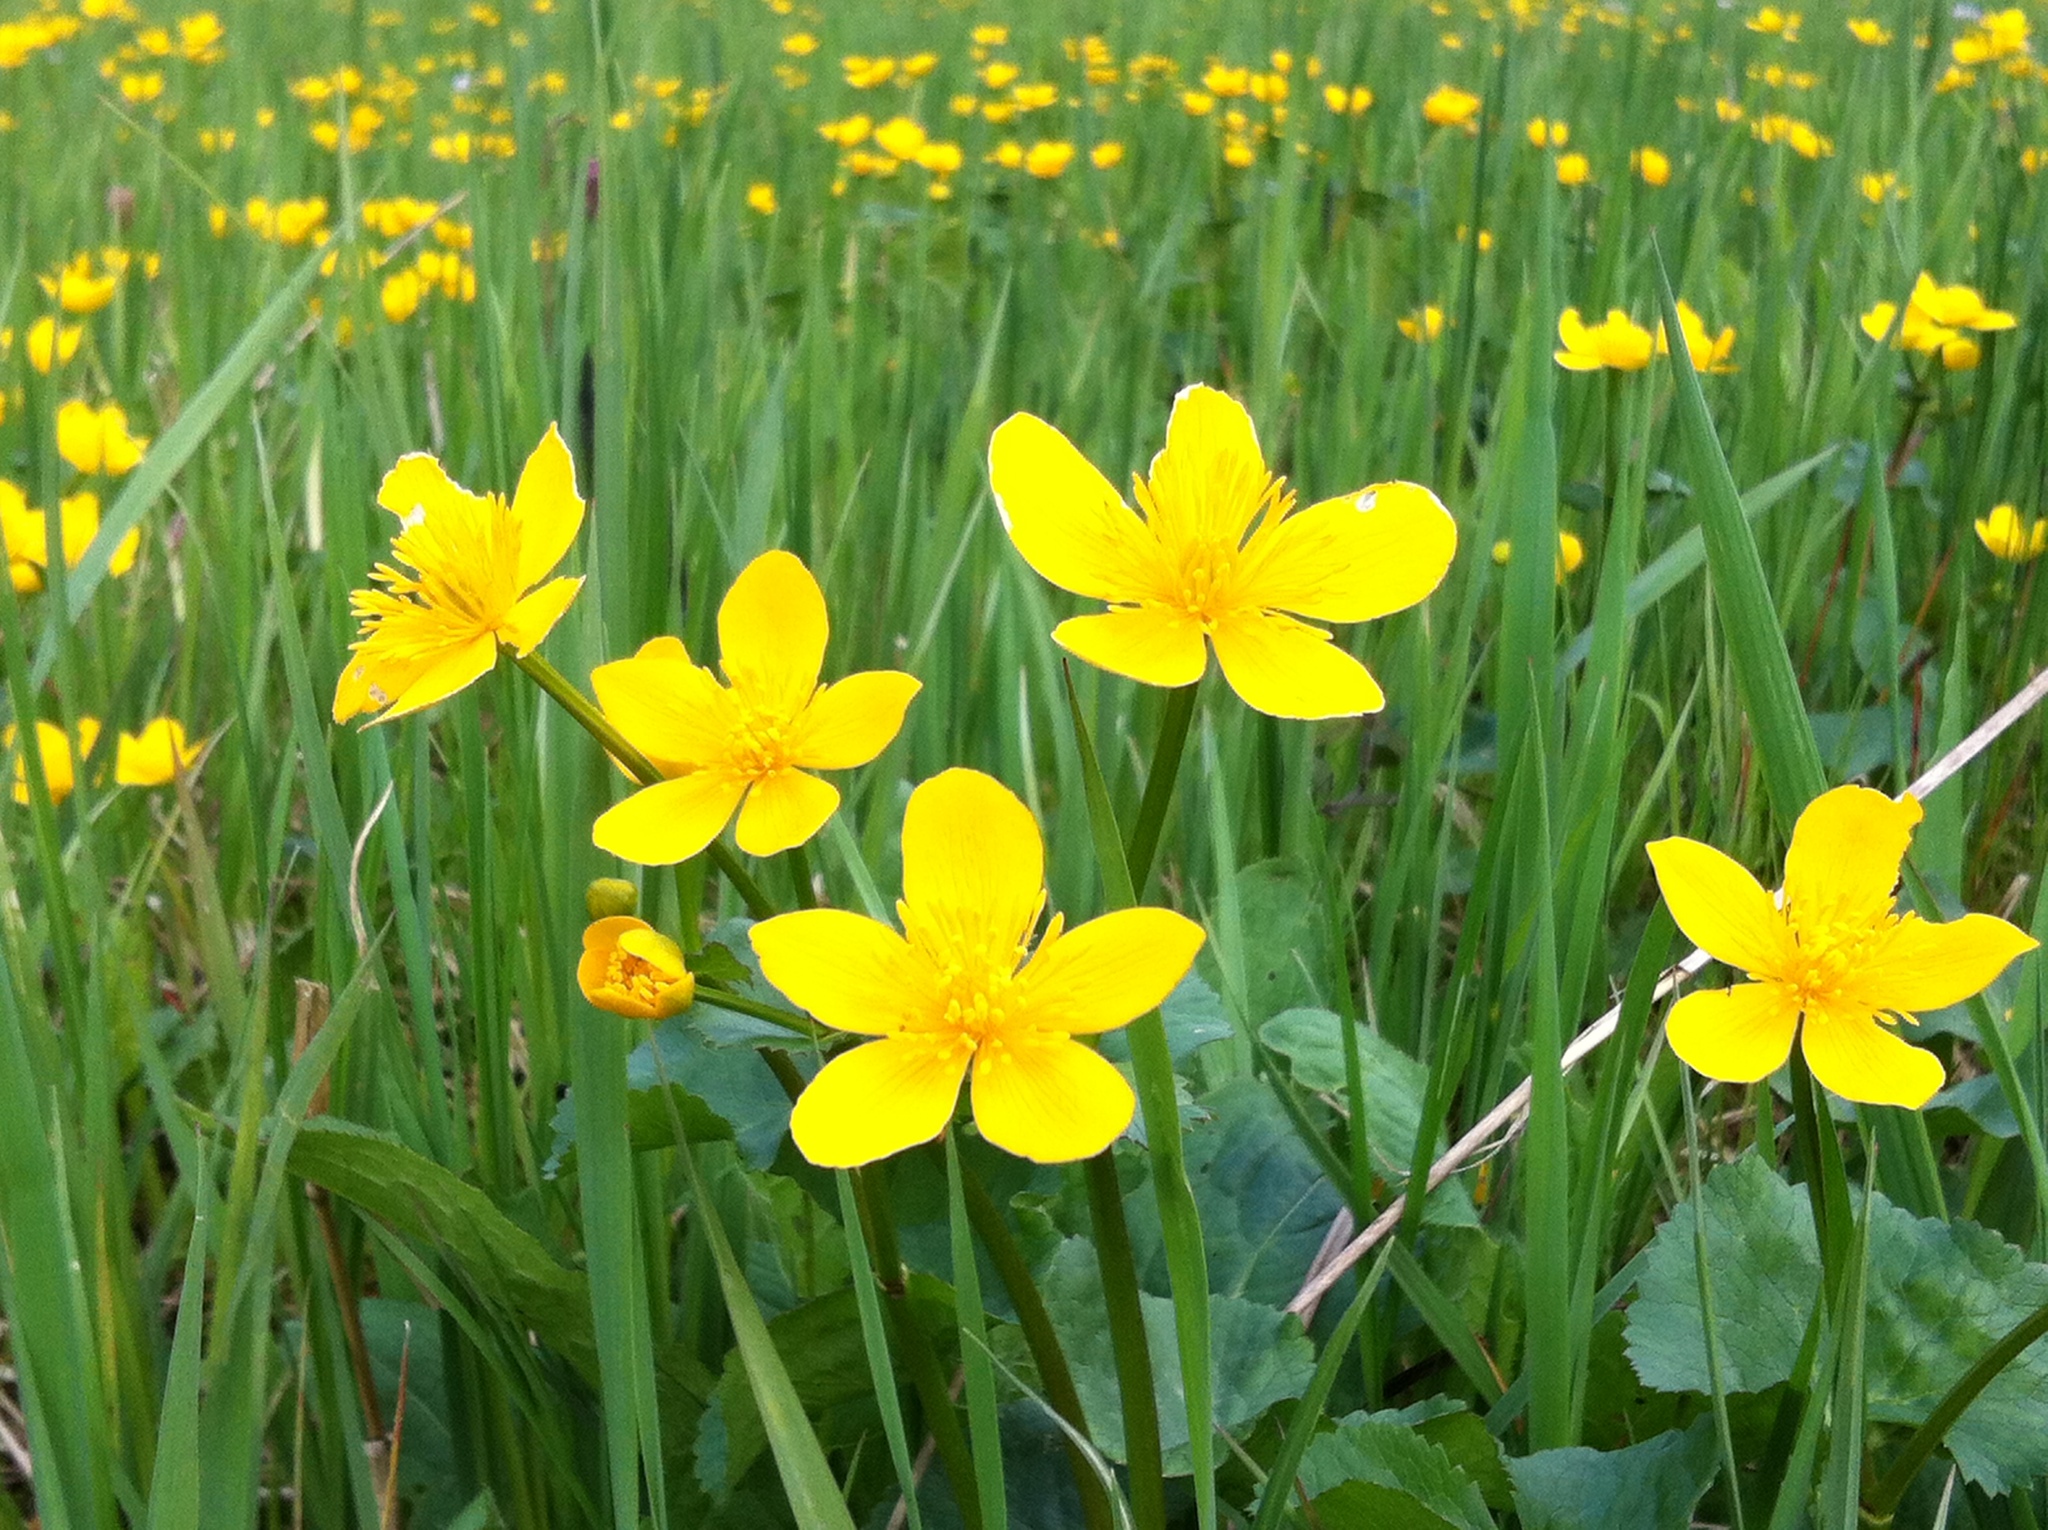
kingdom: Plantae
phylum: Tracheophyta
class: Magnoliopsida
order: Ranunculales
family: Ranunculaceae
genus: Caltha
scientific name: Caltha palustris
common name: Marsh marigold
